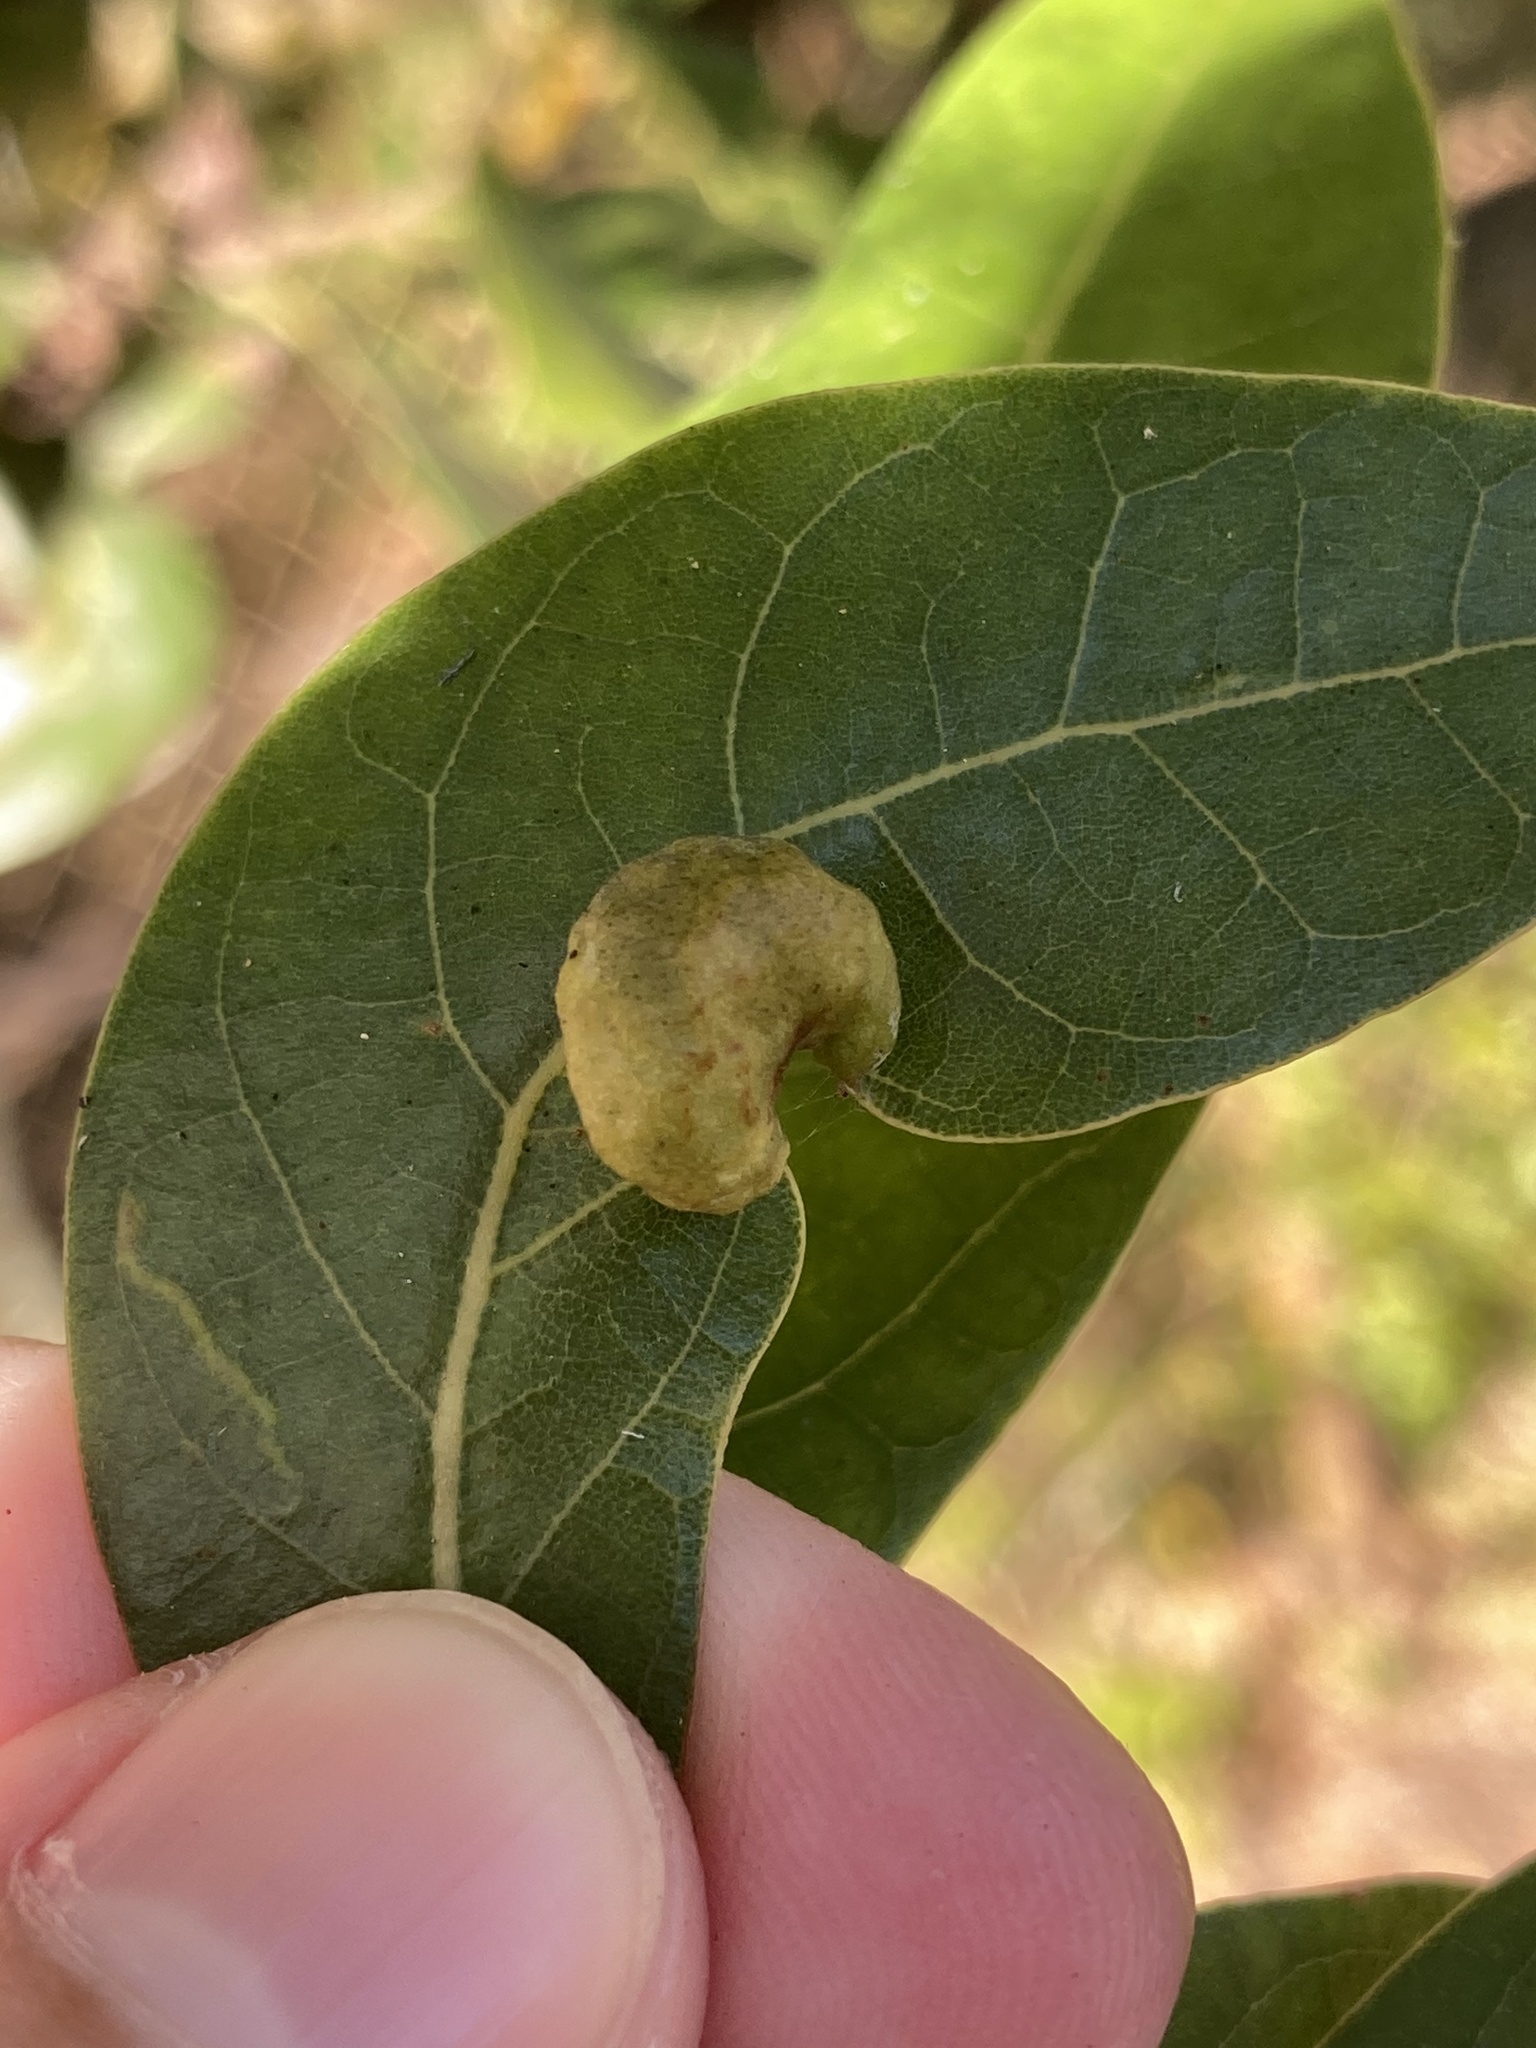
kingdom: Animalia
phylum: Arthropoda
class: Insecta
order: Hemiptera
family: Triozidae
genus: Trioza
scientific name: Trioza magnoliae
